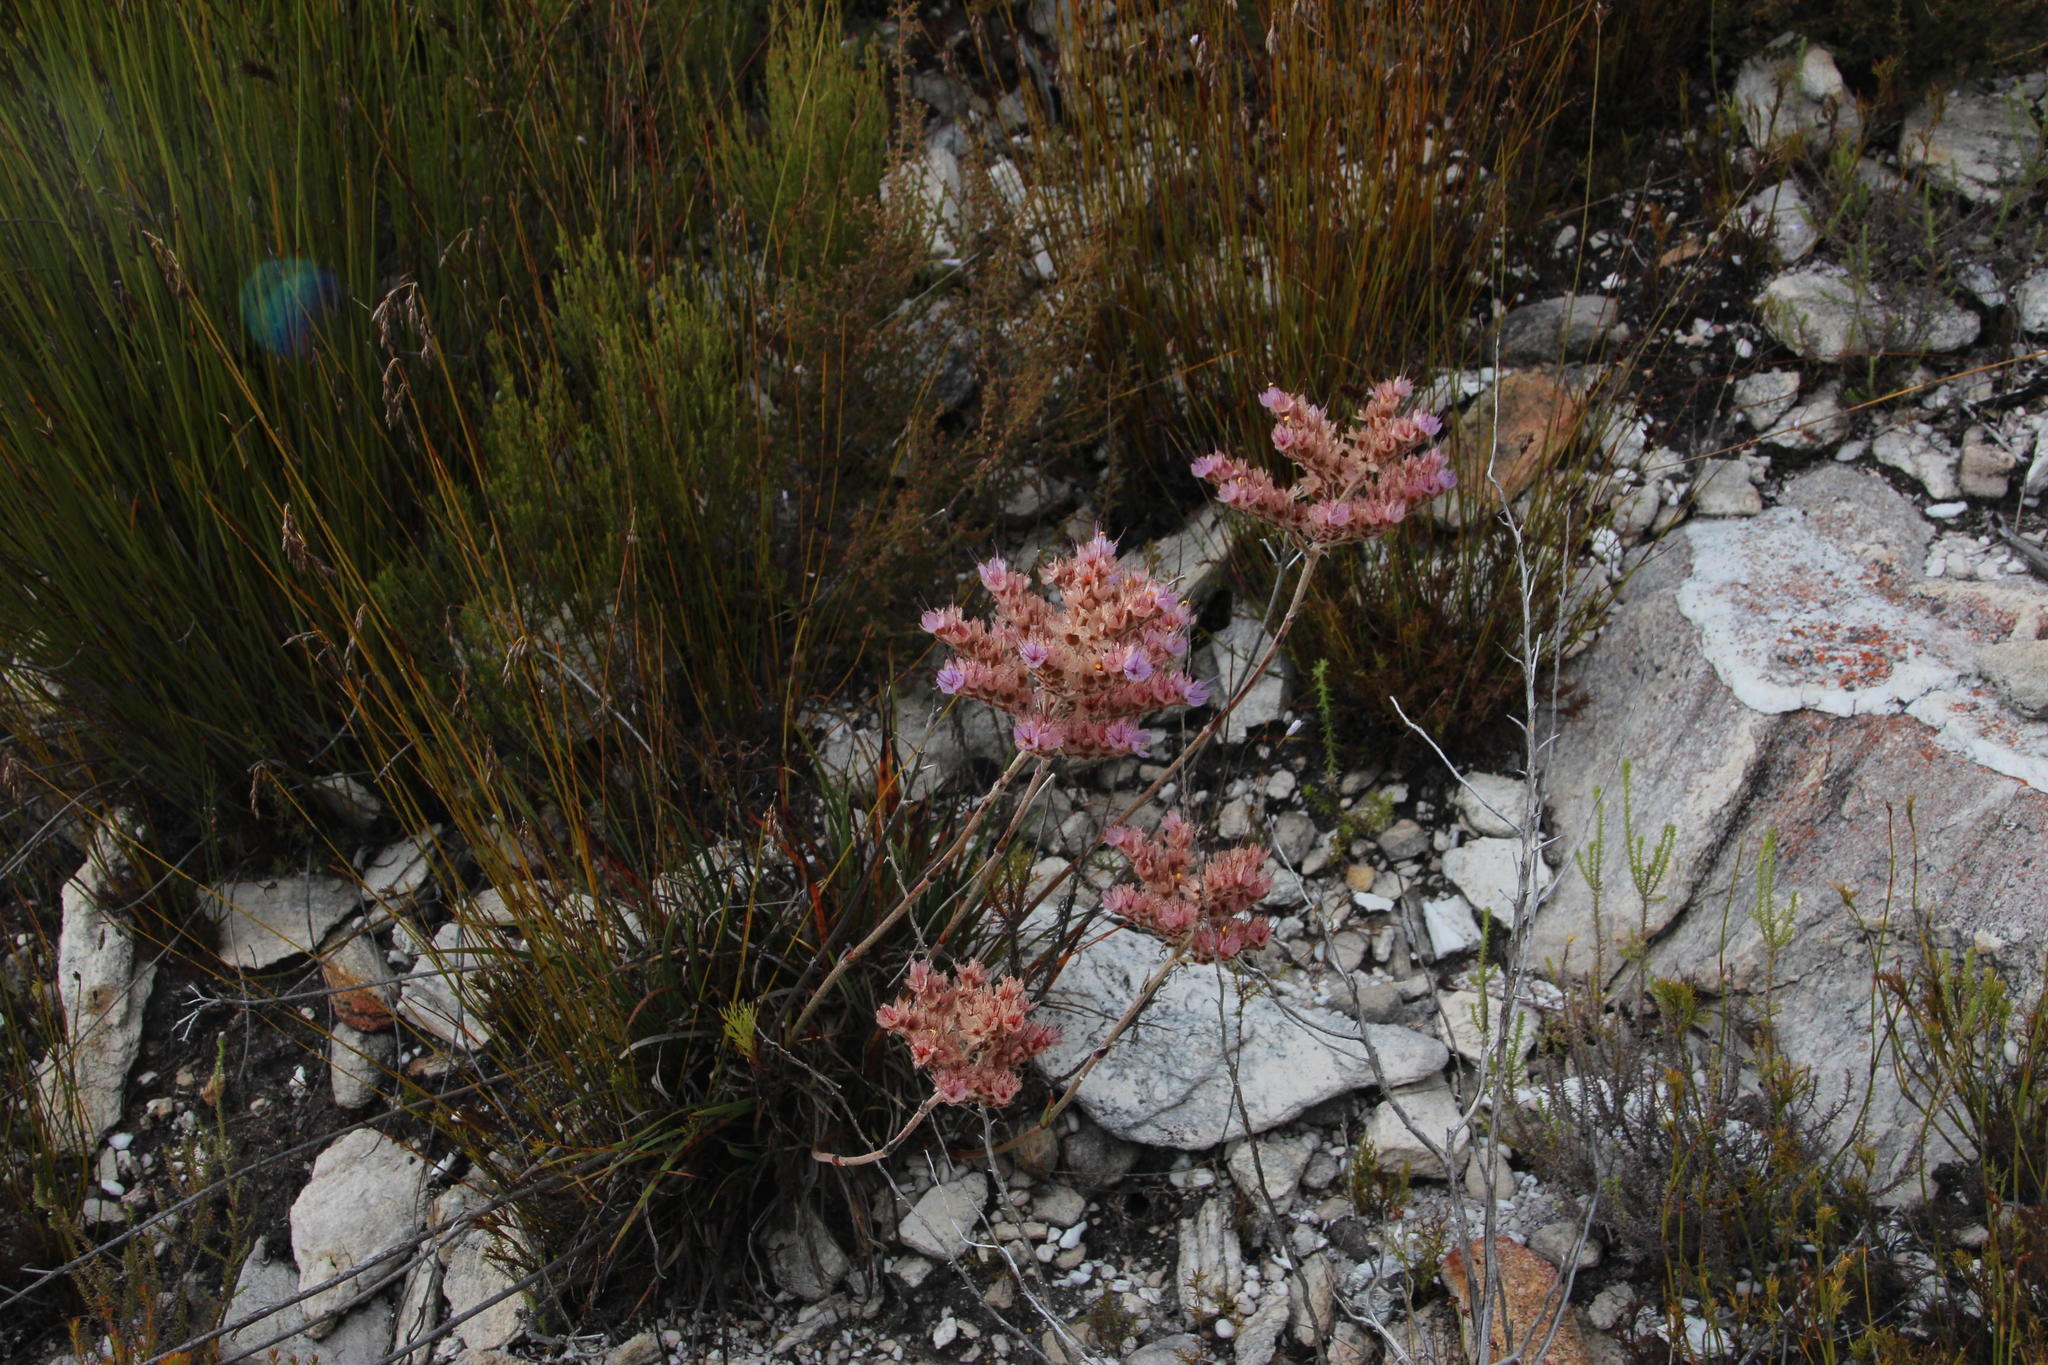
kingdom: Plantae
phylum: Tracheophyta
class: Liliopsida
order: Commelinales
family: Haemodoraceae
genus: Dilatris
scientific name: Dilatris pillansii
